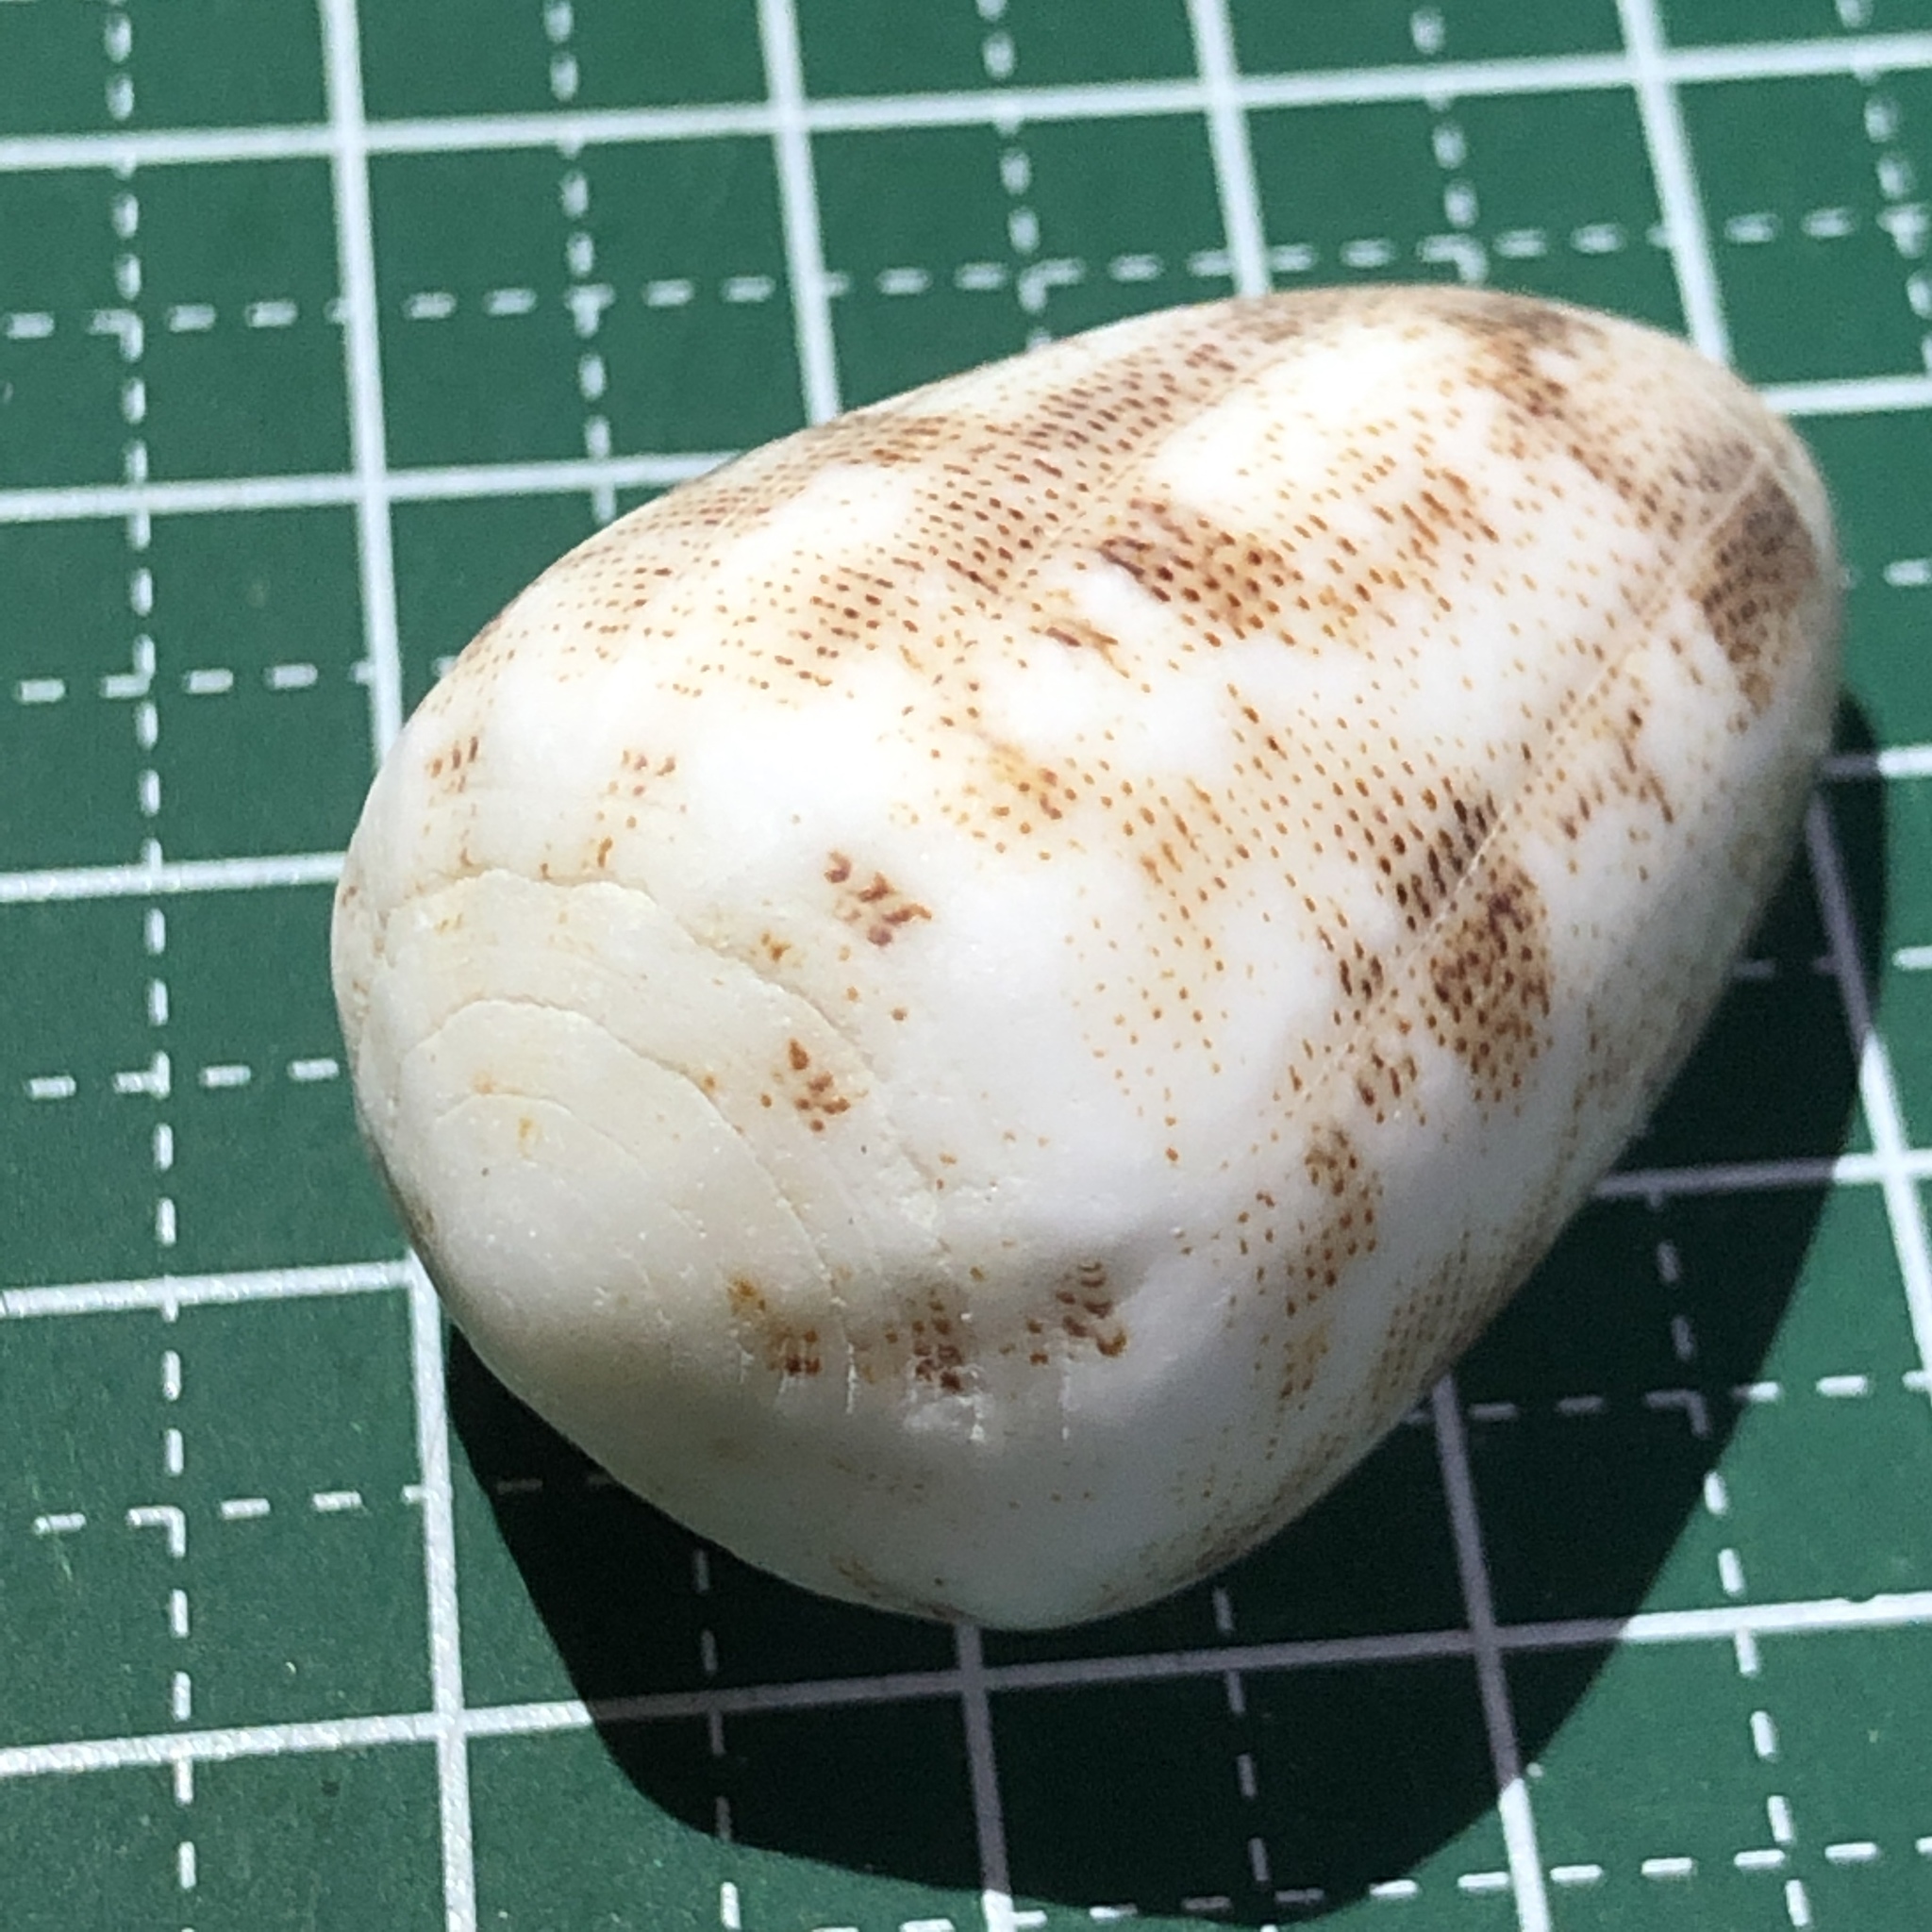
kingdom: Animalia
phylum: Mollusca
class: Gastropoda
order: Neogastropoda
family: Conidae
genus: Conus
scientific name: Conus arenatus
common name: Sand-dusted cone
